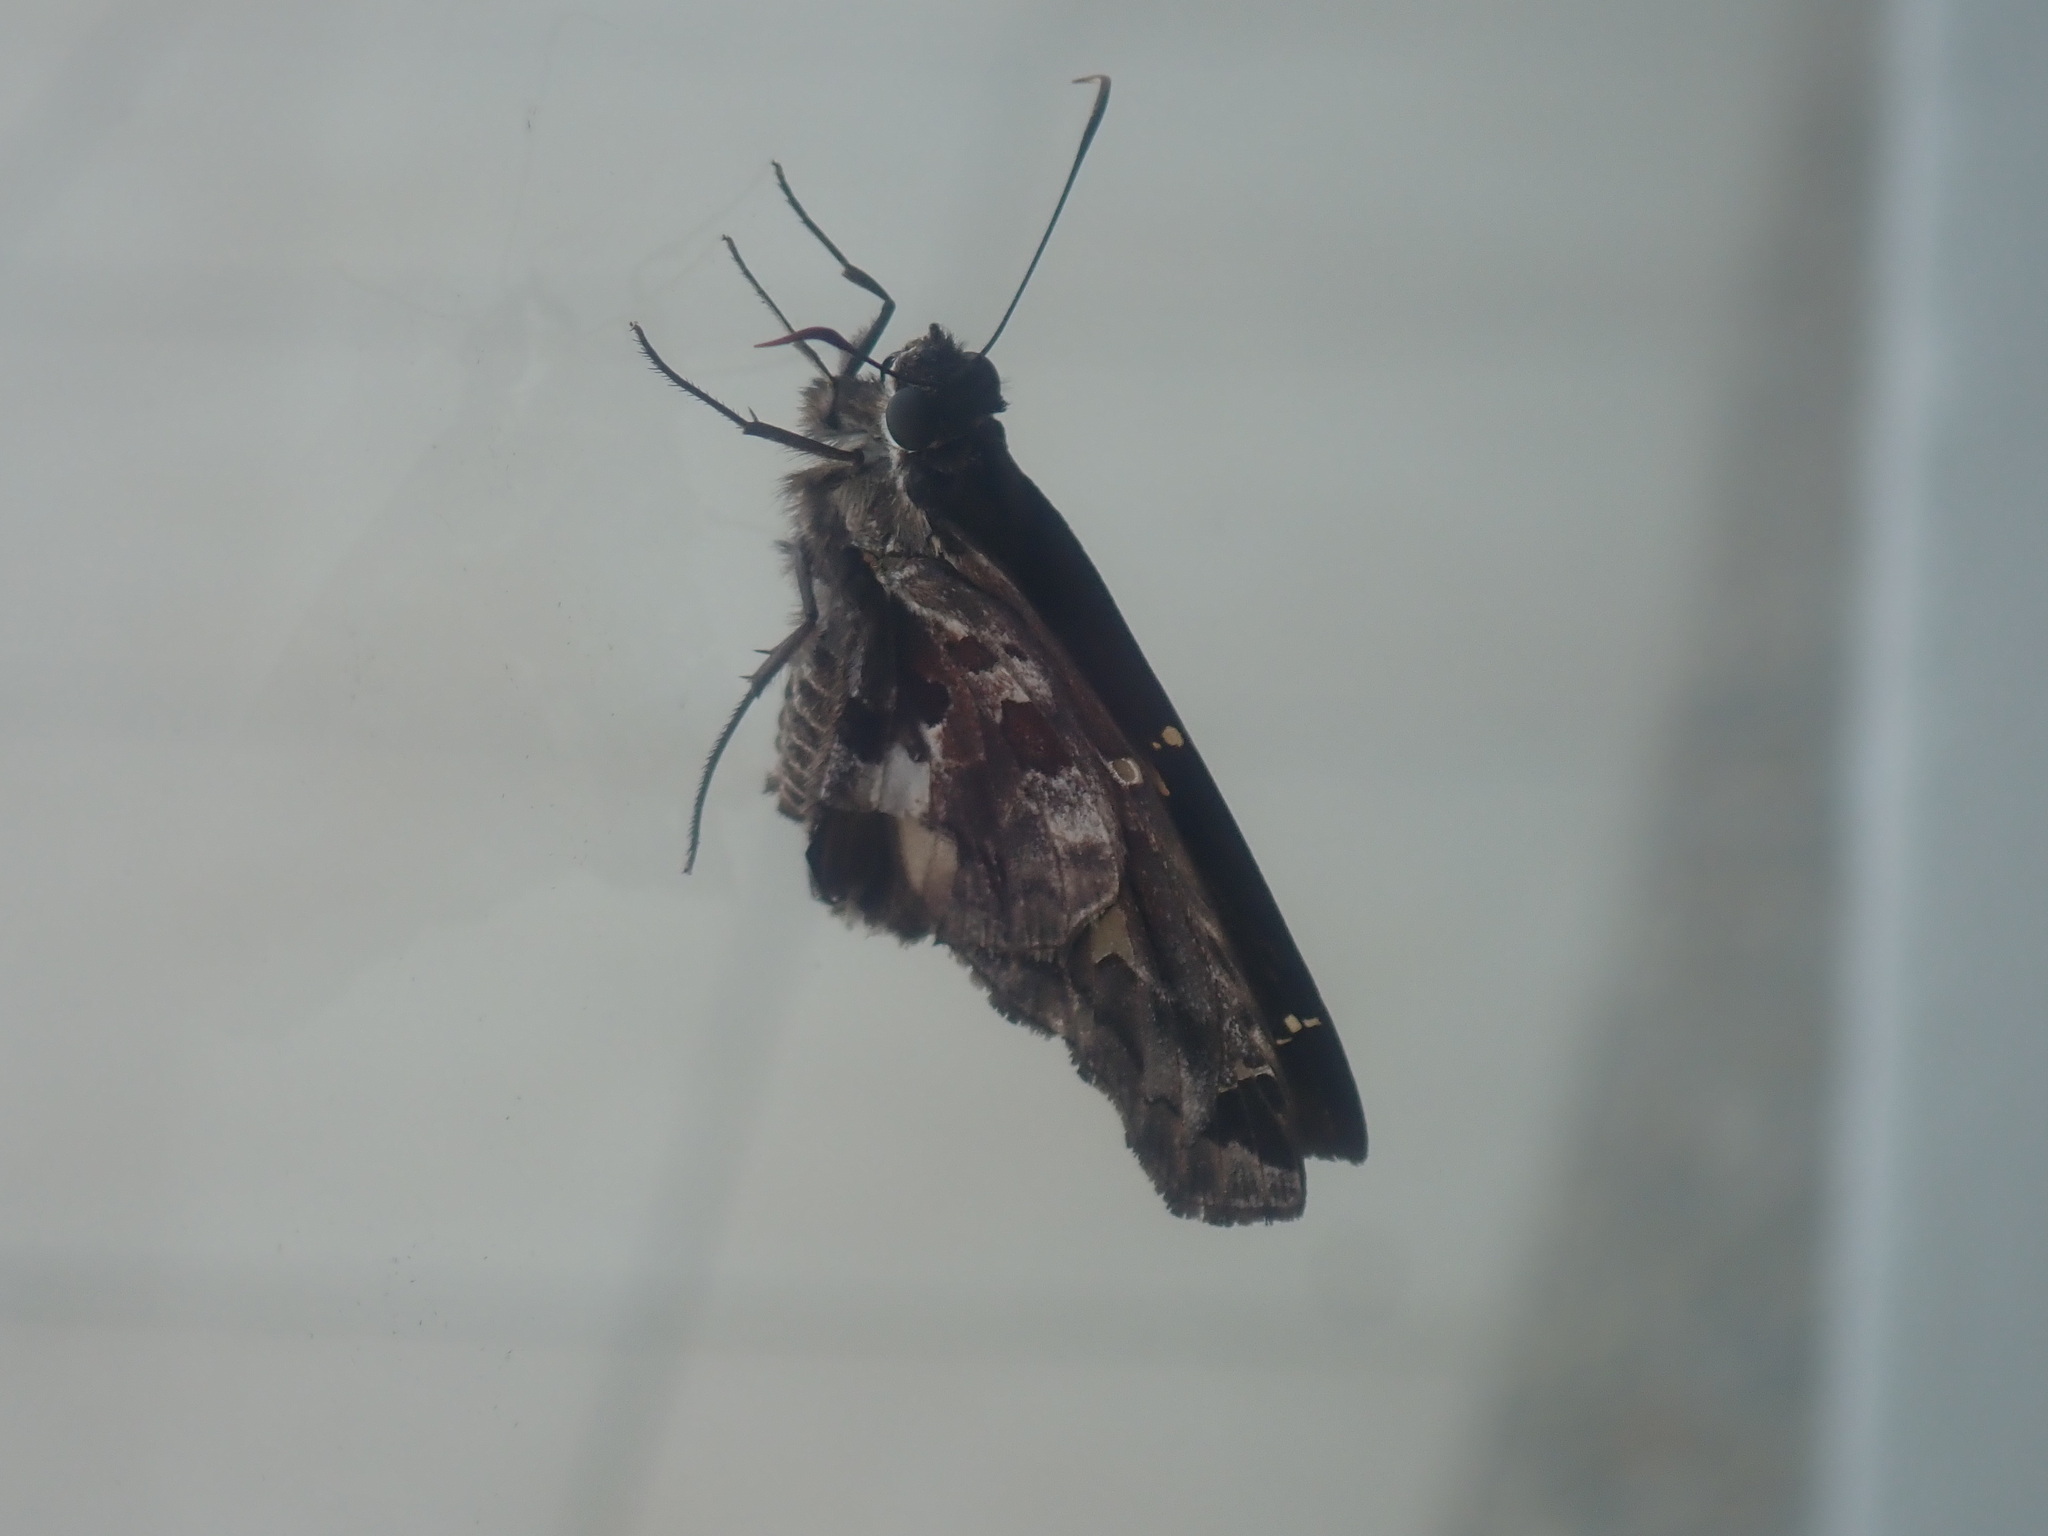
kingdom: Animalia
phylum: Arthropoda
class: Insecta
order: Lepidoptera
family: Hesperiidae
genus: Chioides
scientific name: Chioides zilpa
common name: Zilpa longtail
